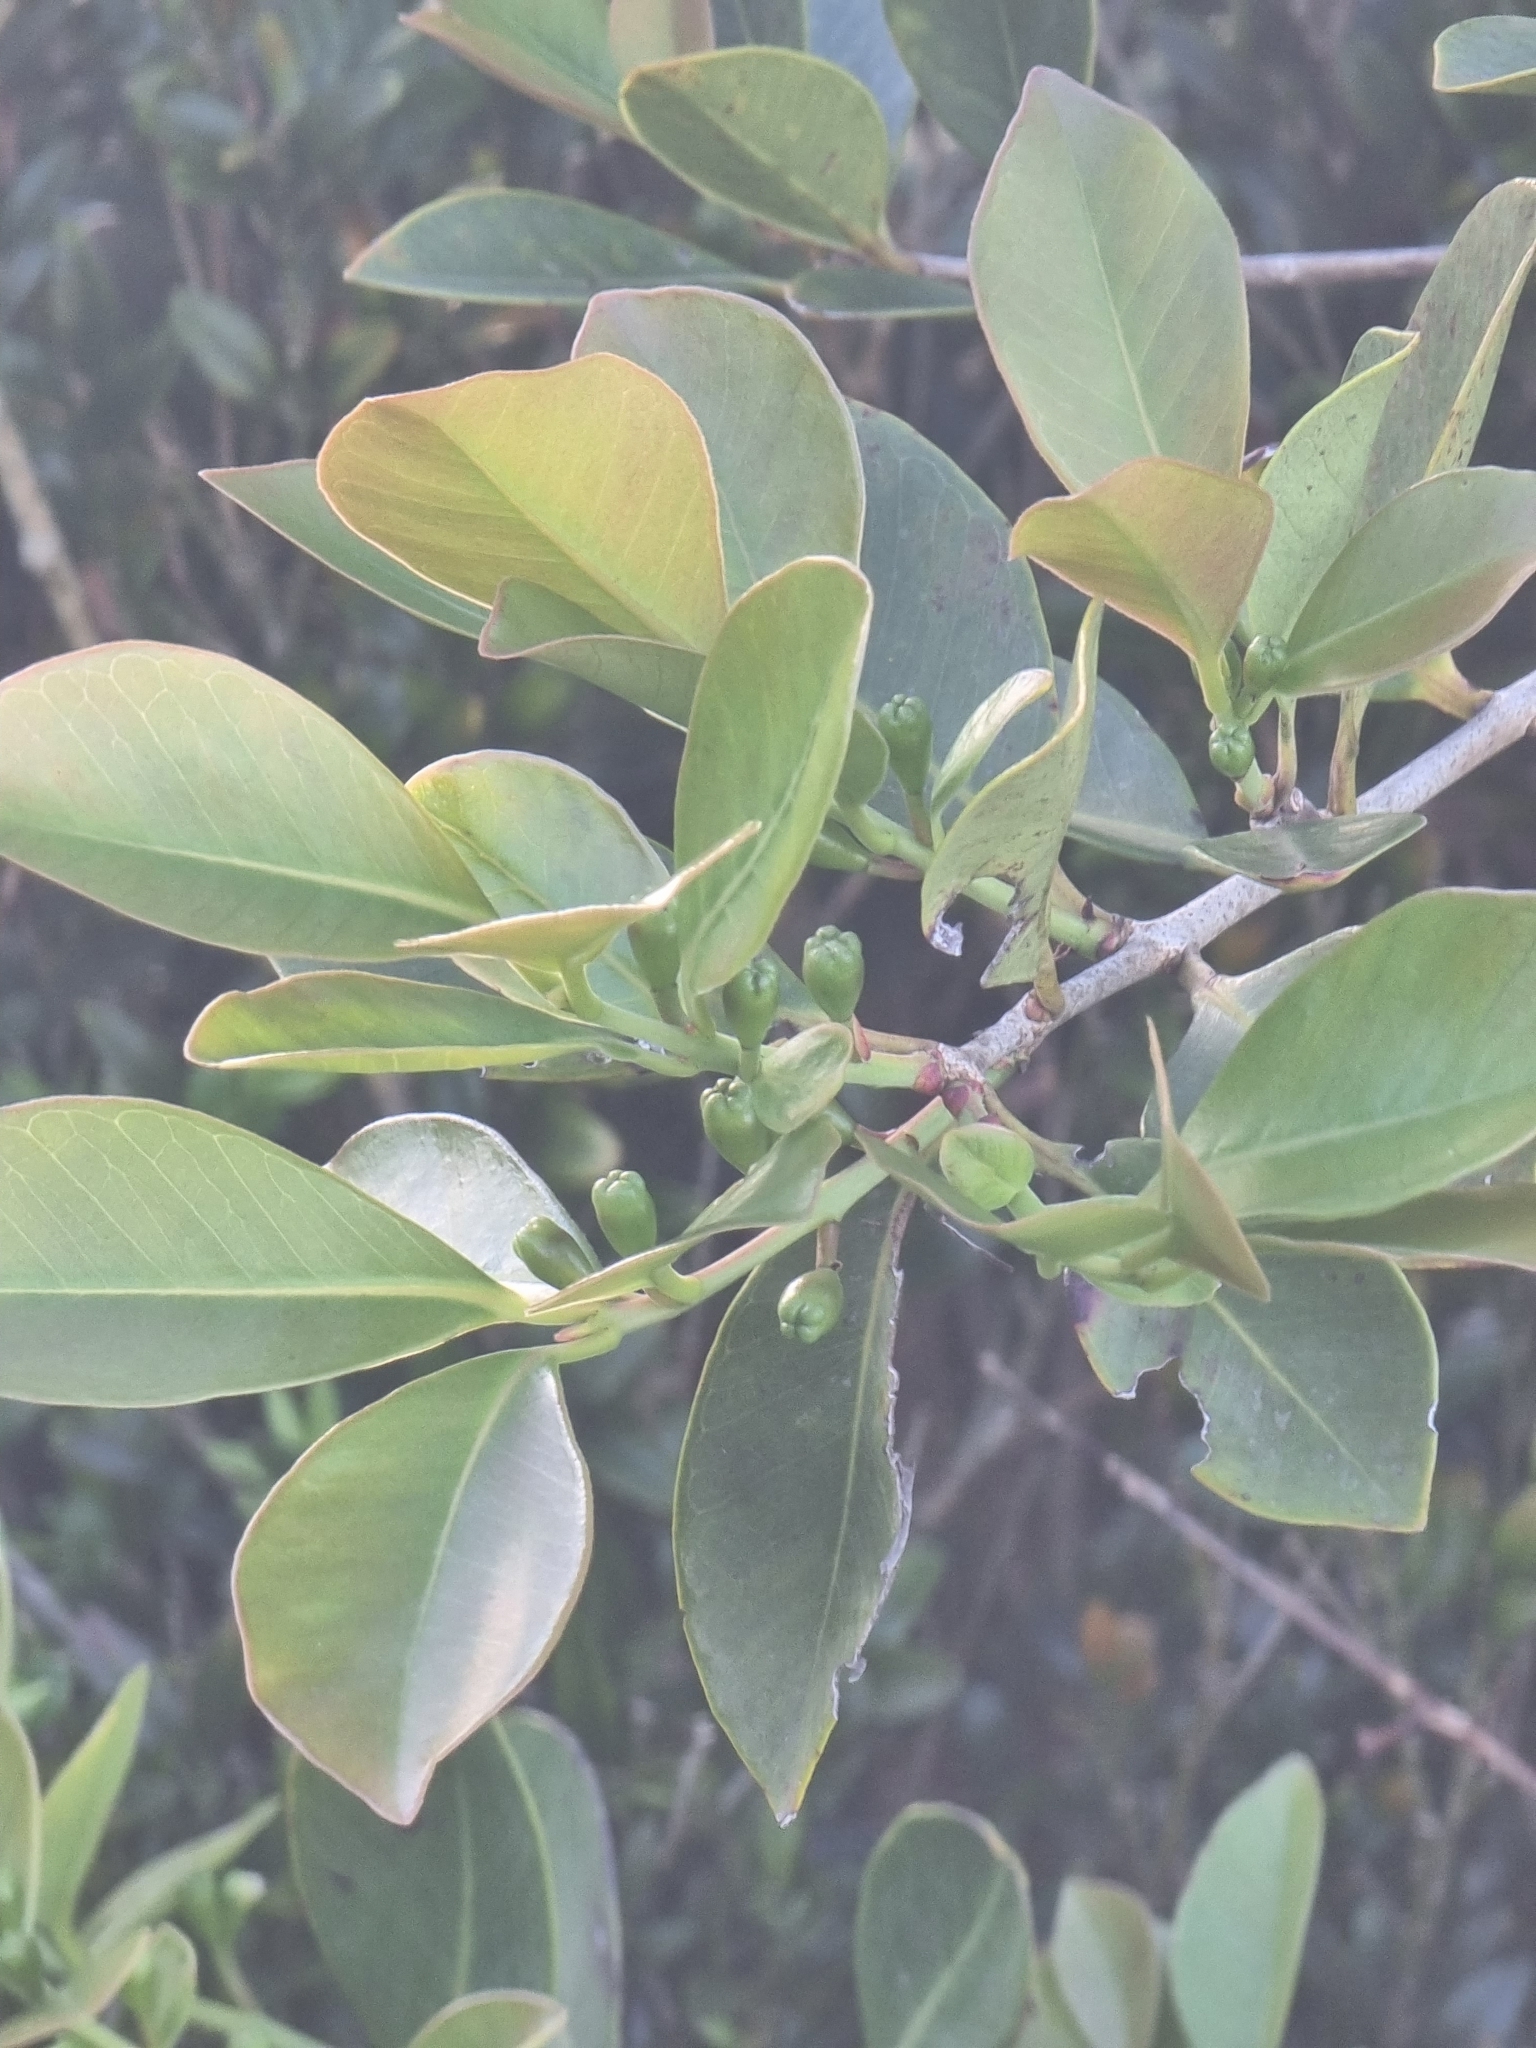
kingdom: Plantae
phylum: Tracheophyta
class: Magnoliopsida
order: Myrtales
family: Myrtaceae
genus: Psidium
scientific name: Psidium cattleianum
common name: Strawberry guava
